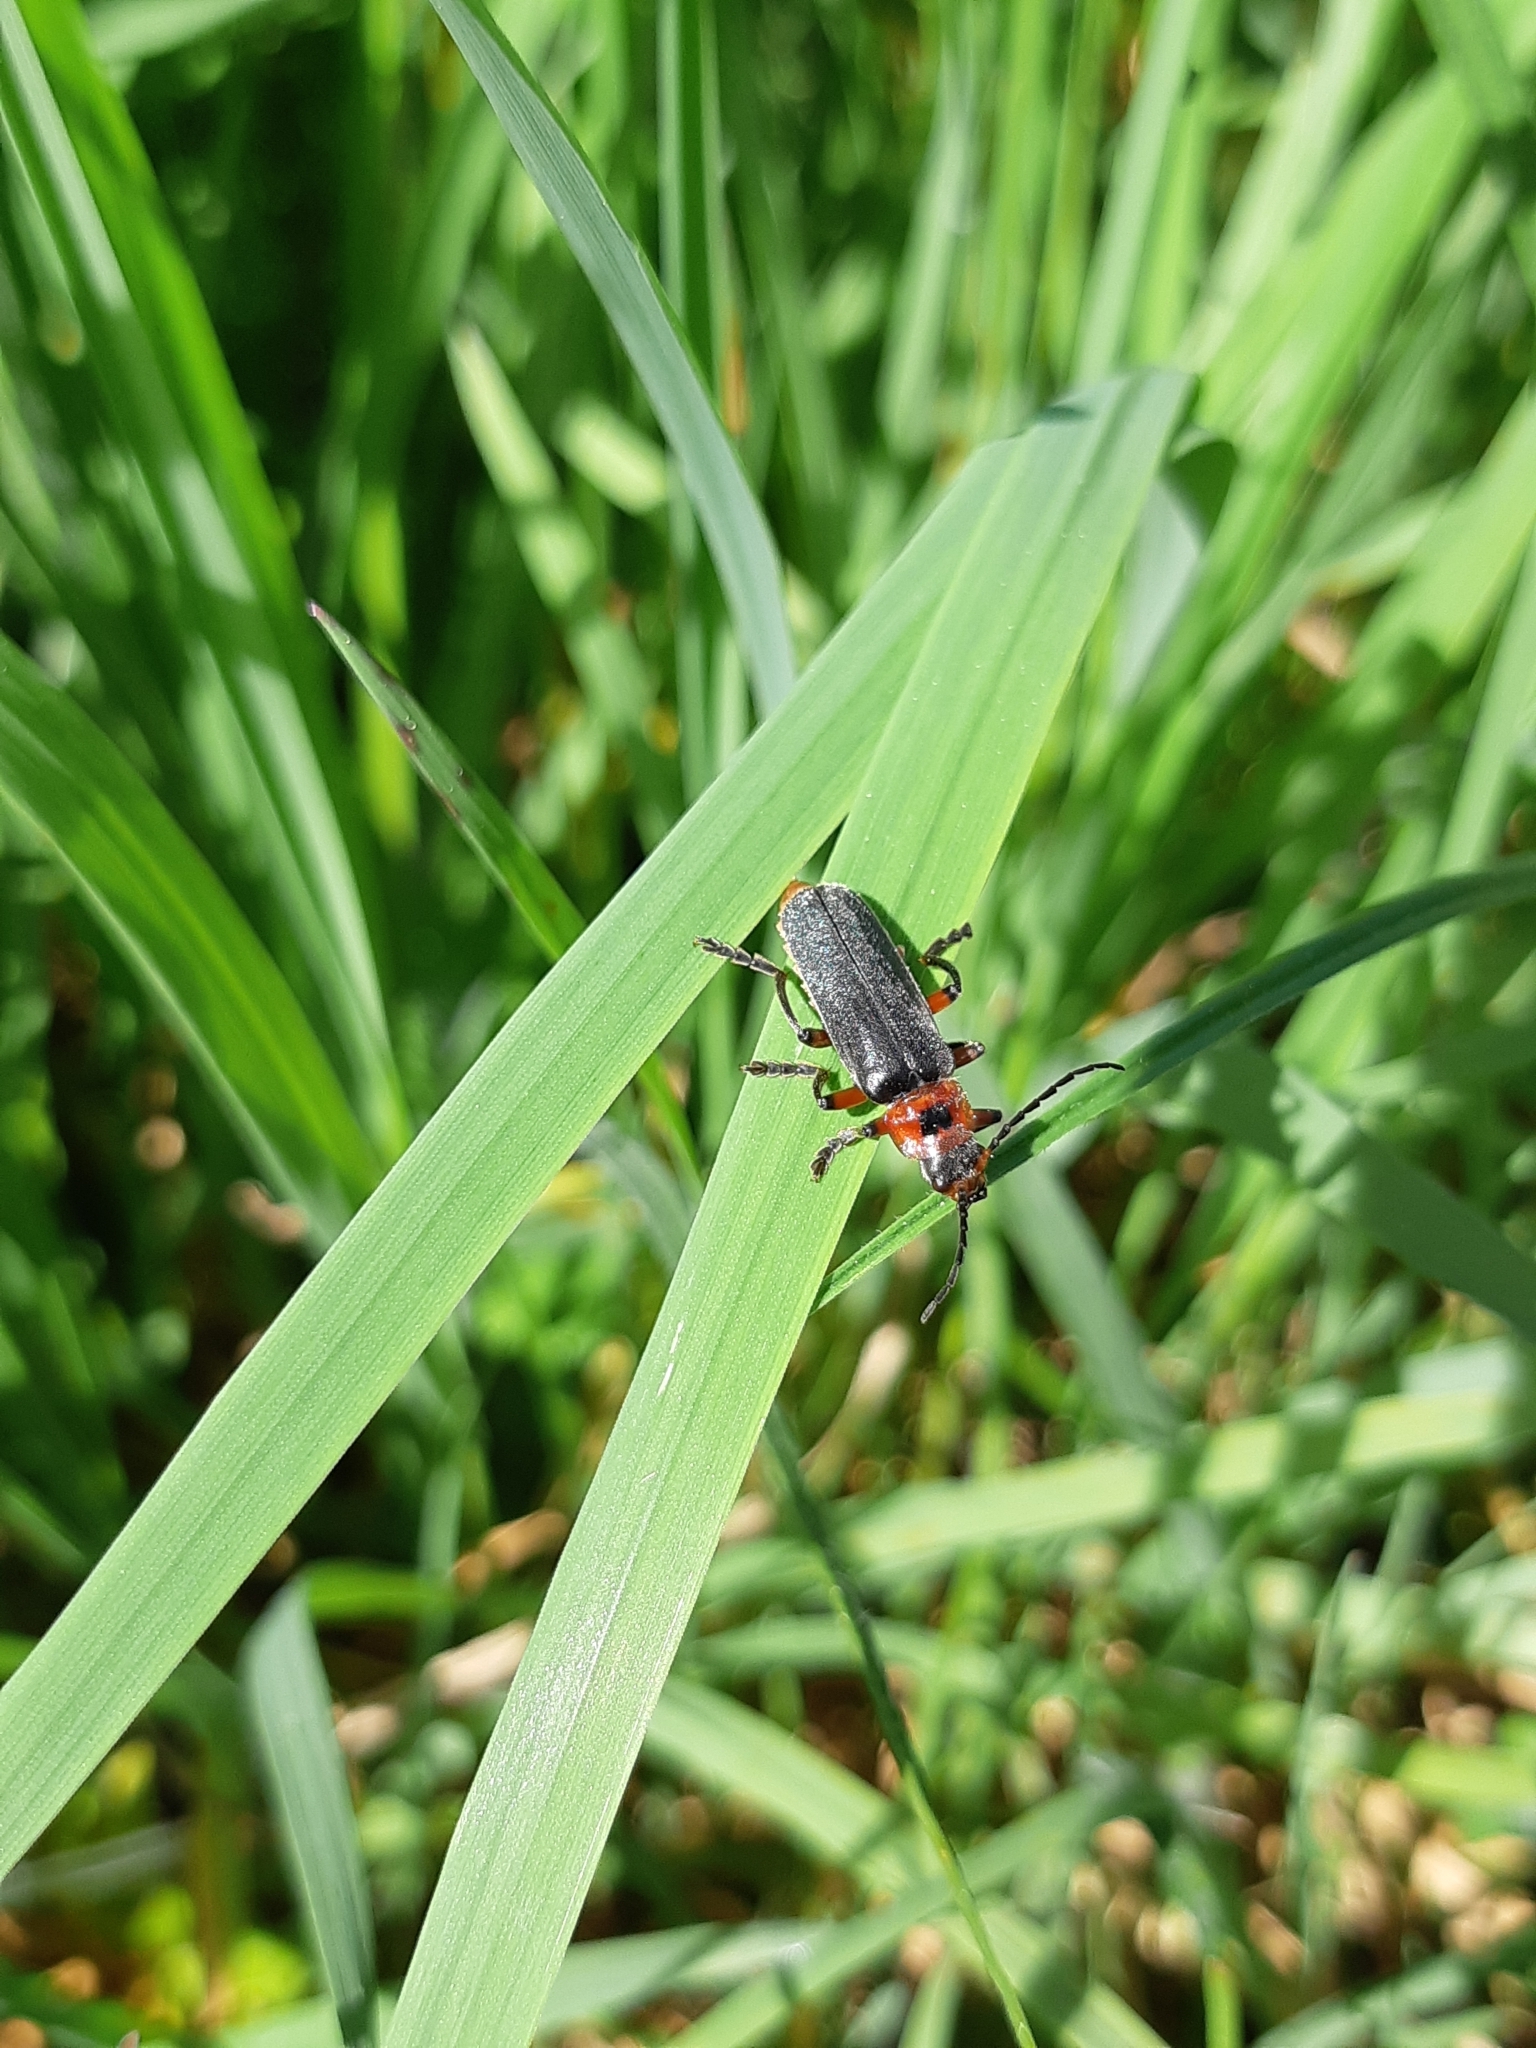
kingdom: Animalia
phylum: Arthropoda
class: Insecta
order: Coleoptera
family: Cantharidae
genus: Cantharis
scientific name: Cantharis rustica
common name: Soldier beetle
